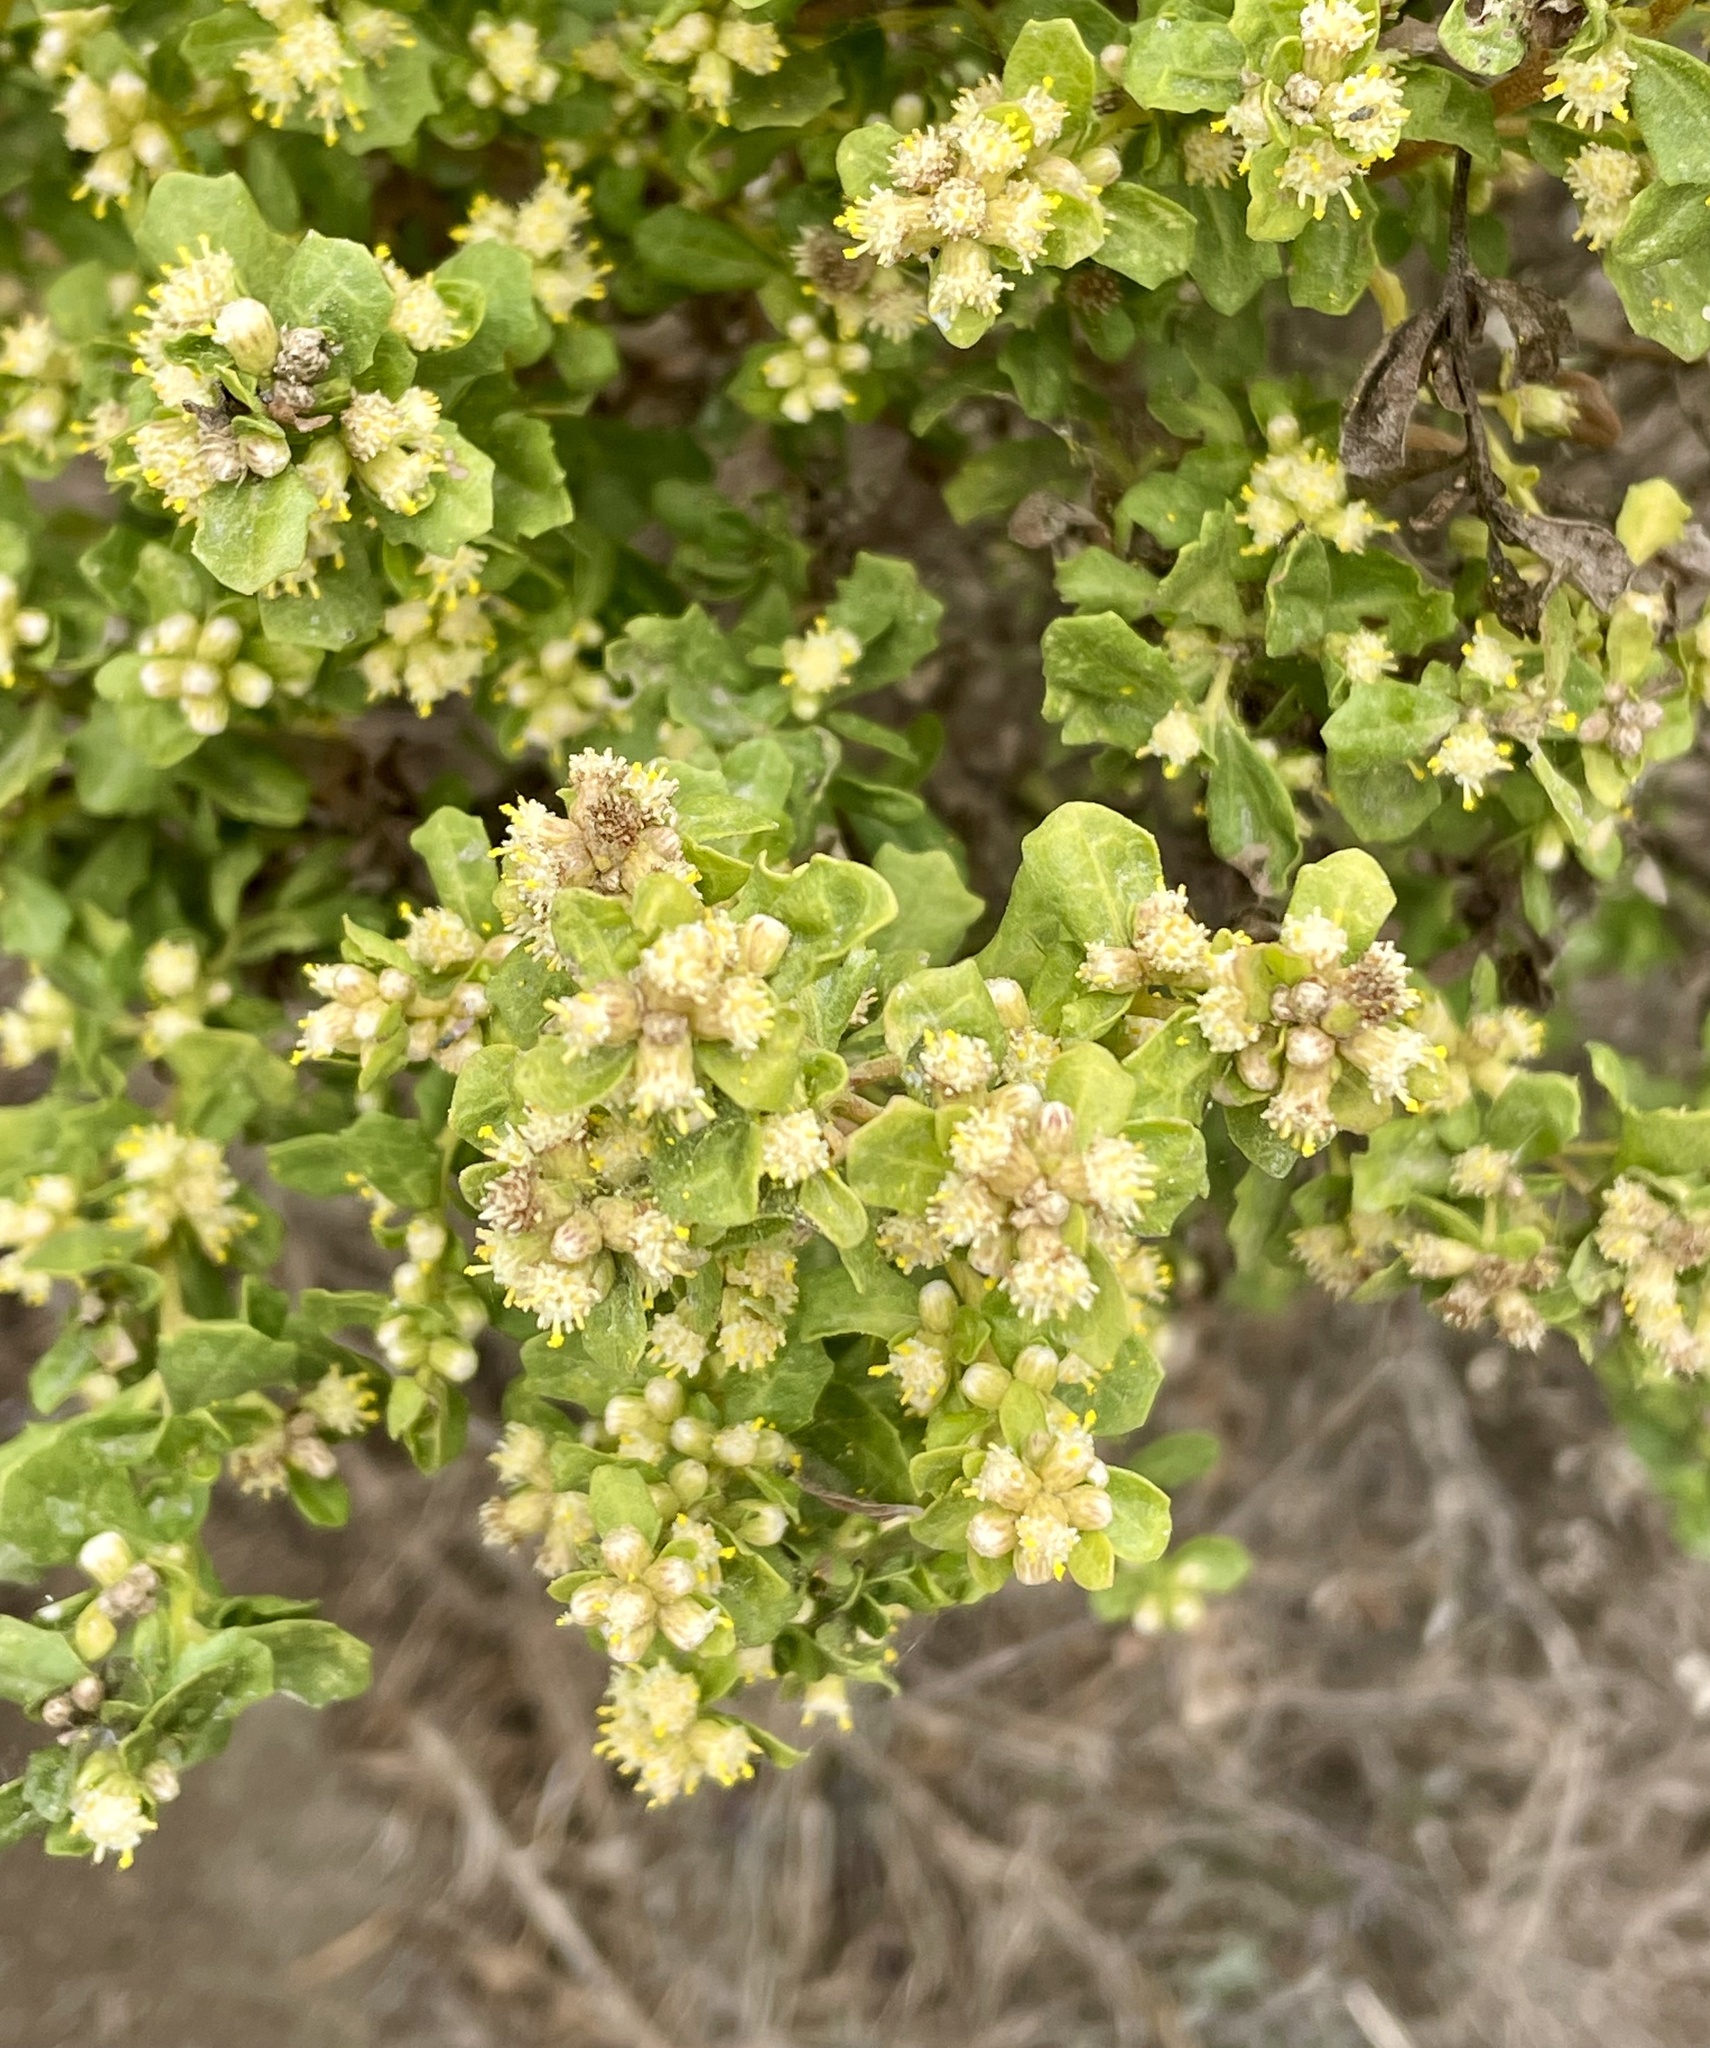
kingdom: Plantae
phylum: Tracheophyta
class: Magnoliopsida
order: Asterales
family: Asteraceae
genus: Baccharis
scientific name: Baccharis pilularis
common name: Coyotebrush
